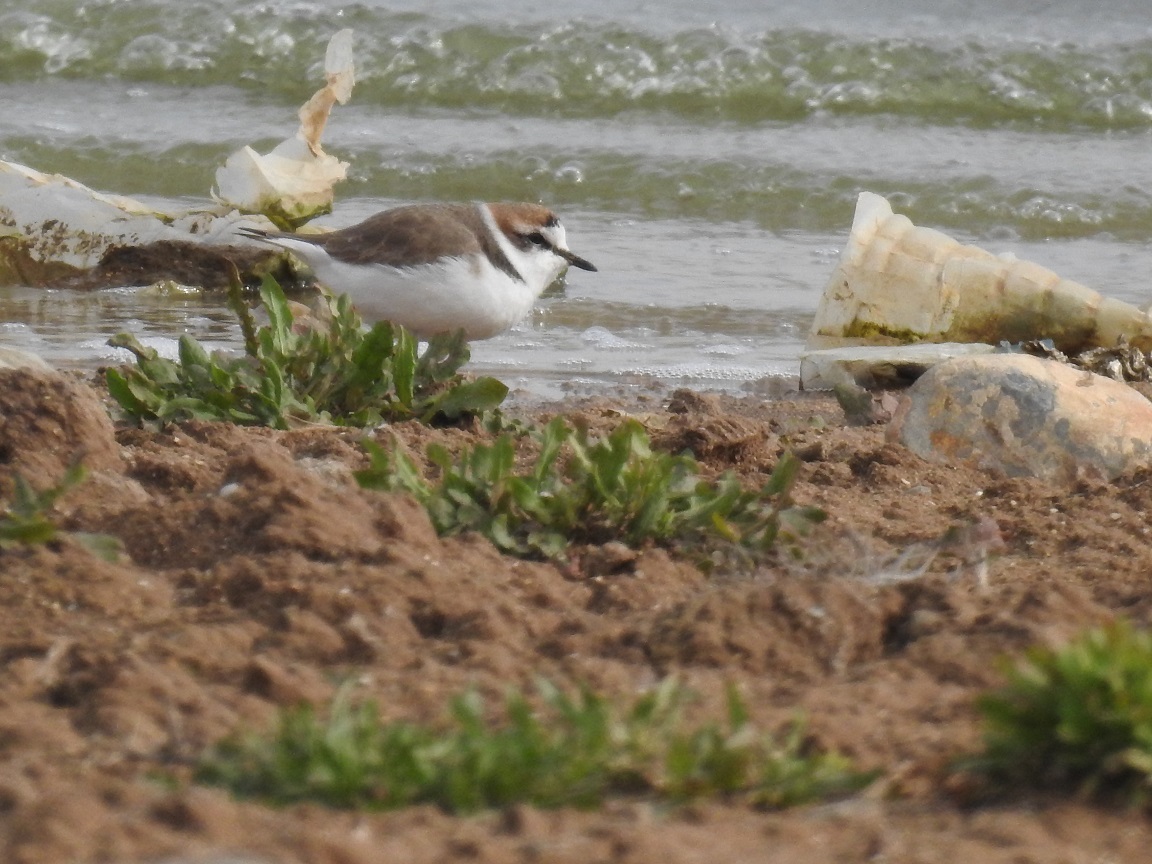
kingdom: Animalia
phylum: Chordata
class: Aves
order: Charadriiformes
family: Charadriidae
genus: Charadrius
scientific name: Charadrius alexandrinus
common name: Kentish plover
